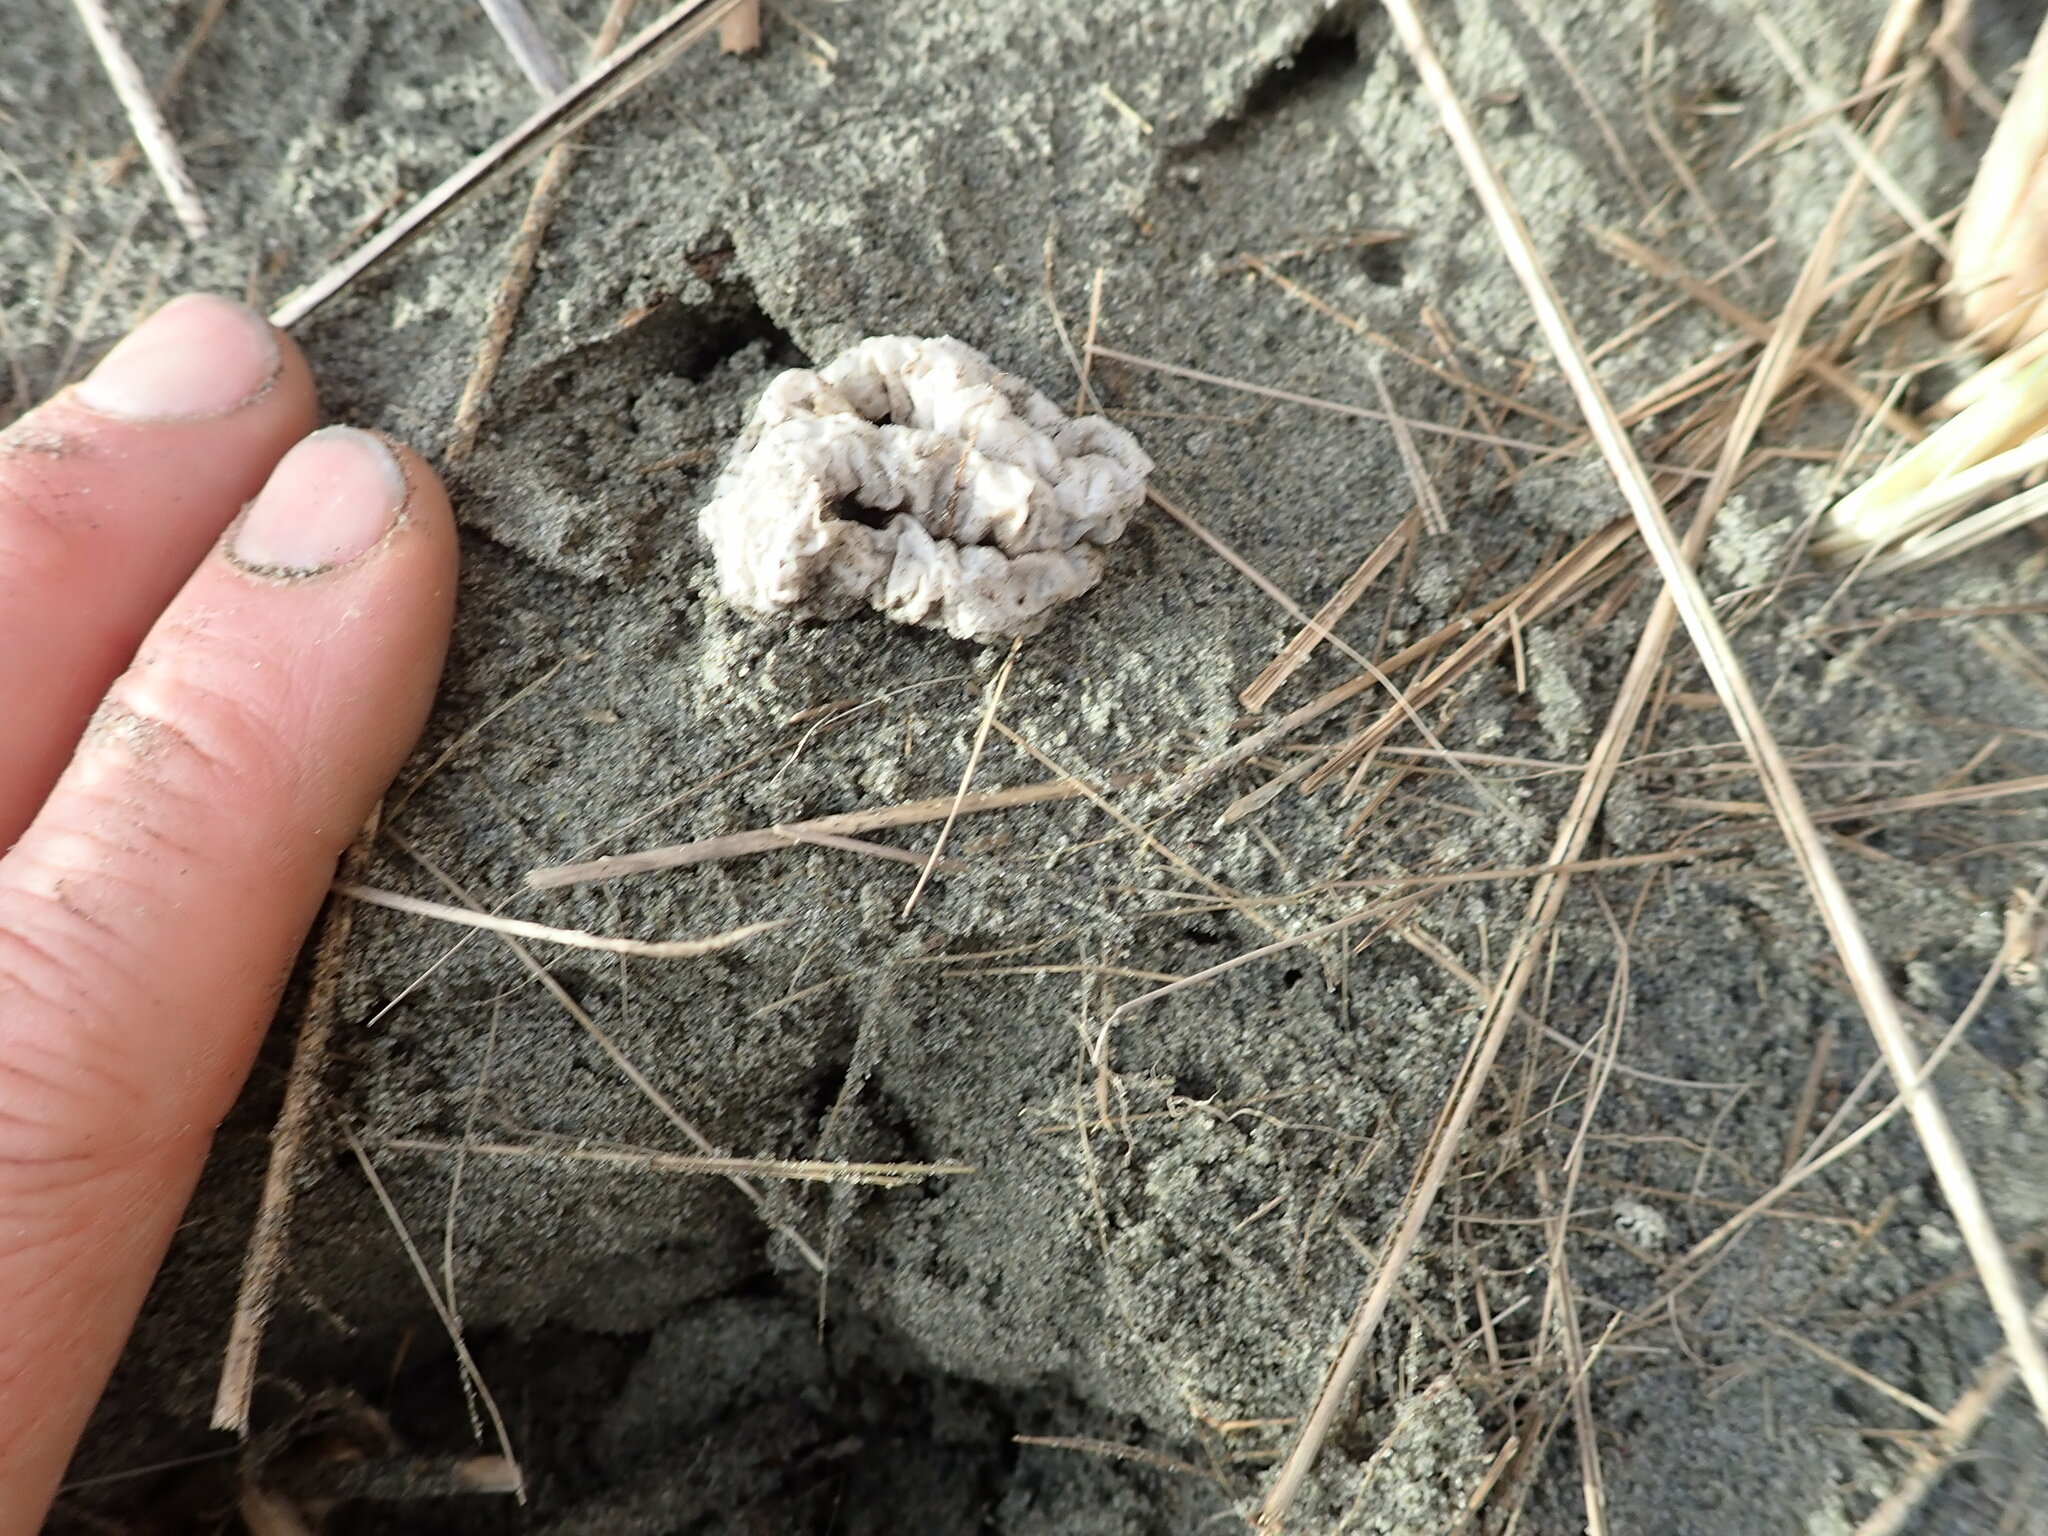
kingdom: Fungi
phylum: Basidiomycota
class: Agaricomycetes
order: Phallales
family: Phallaceae
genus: Ileodictyon
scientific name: Ileodictyon cibarium
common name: Basket fungus
